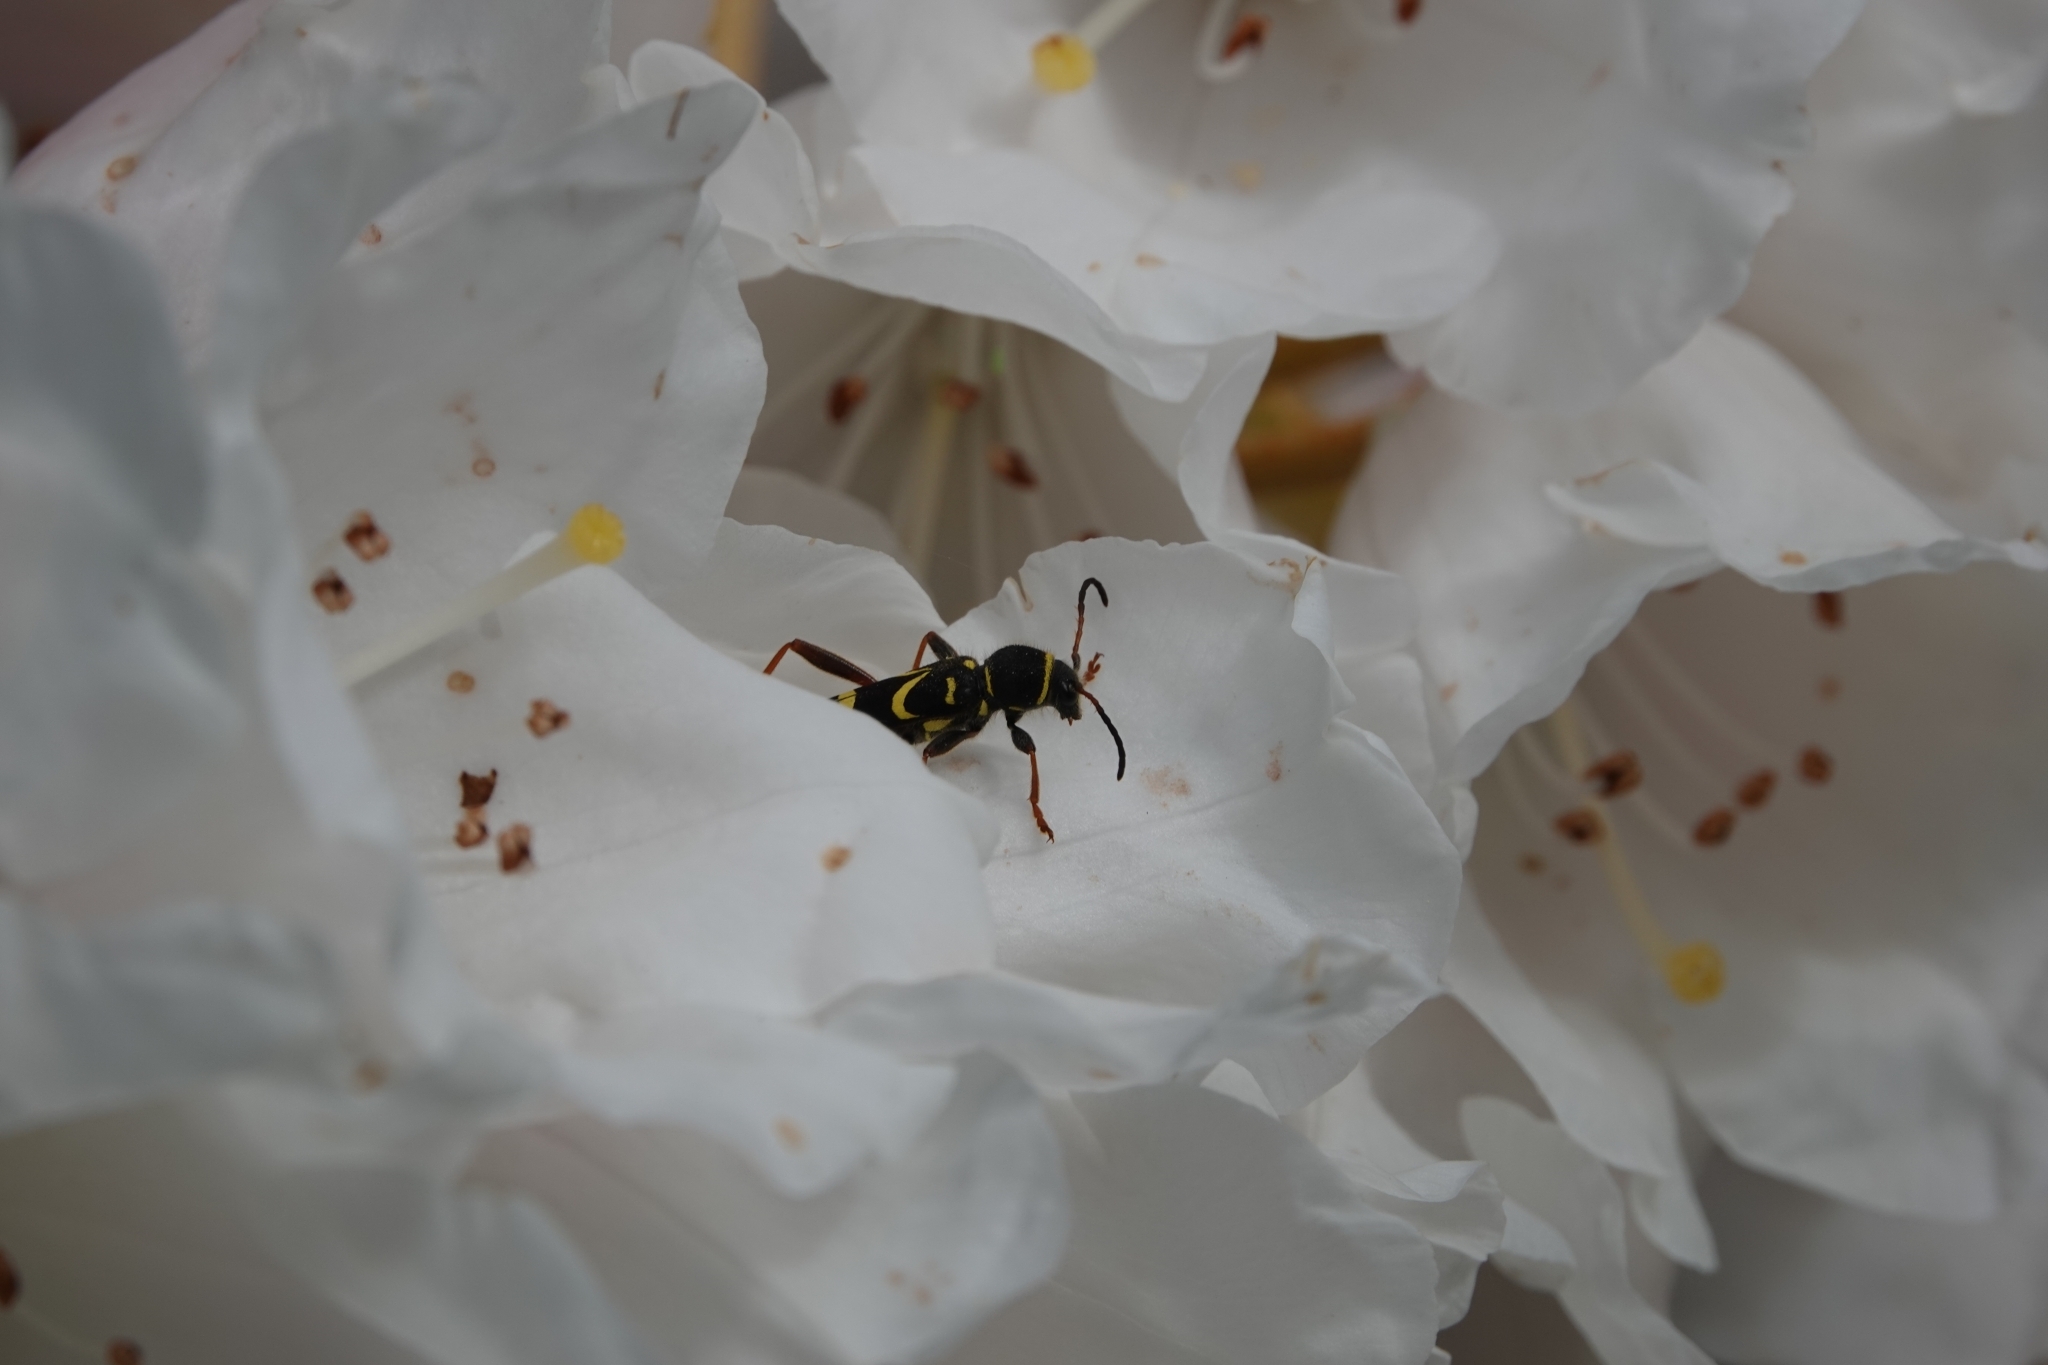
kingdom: Animalia
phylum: Arthropoda
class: Insecta
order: Coleoptera
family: Cerambycidae
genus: Clytus
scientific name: Clytus arietis
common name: Wasp beetle
